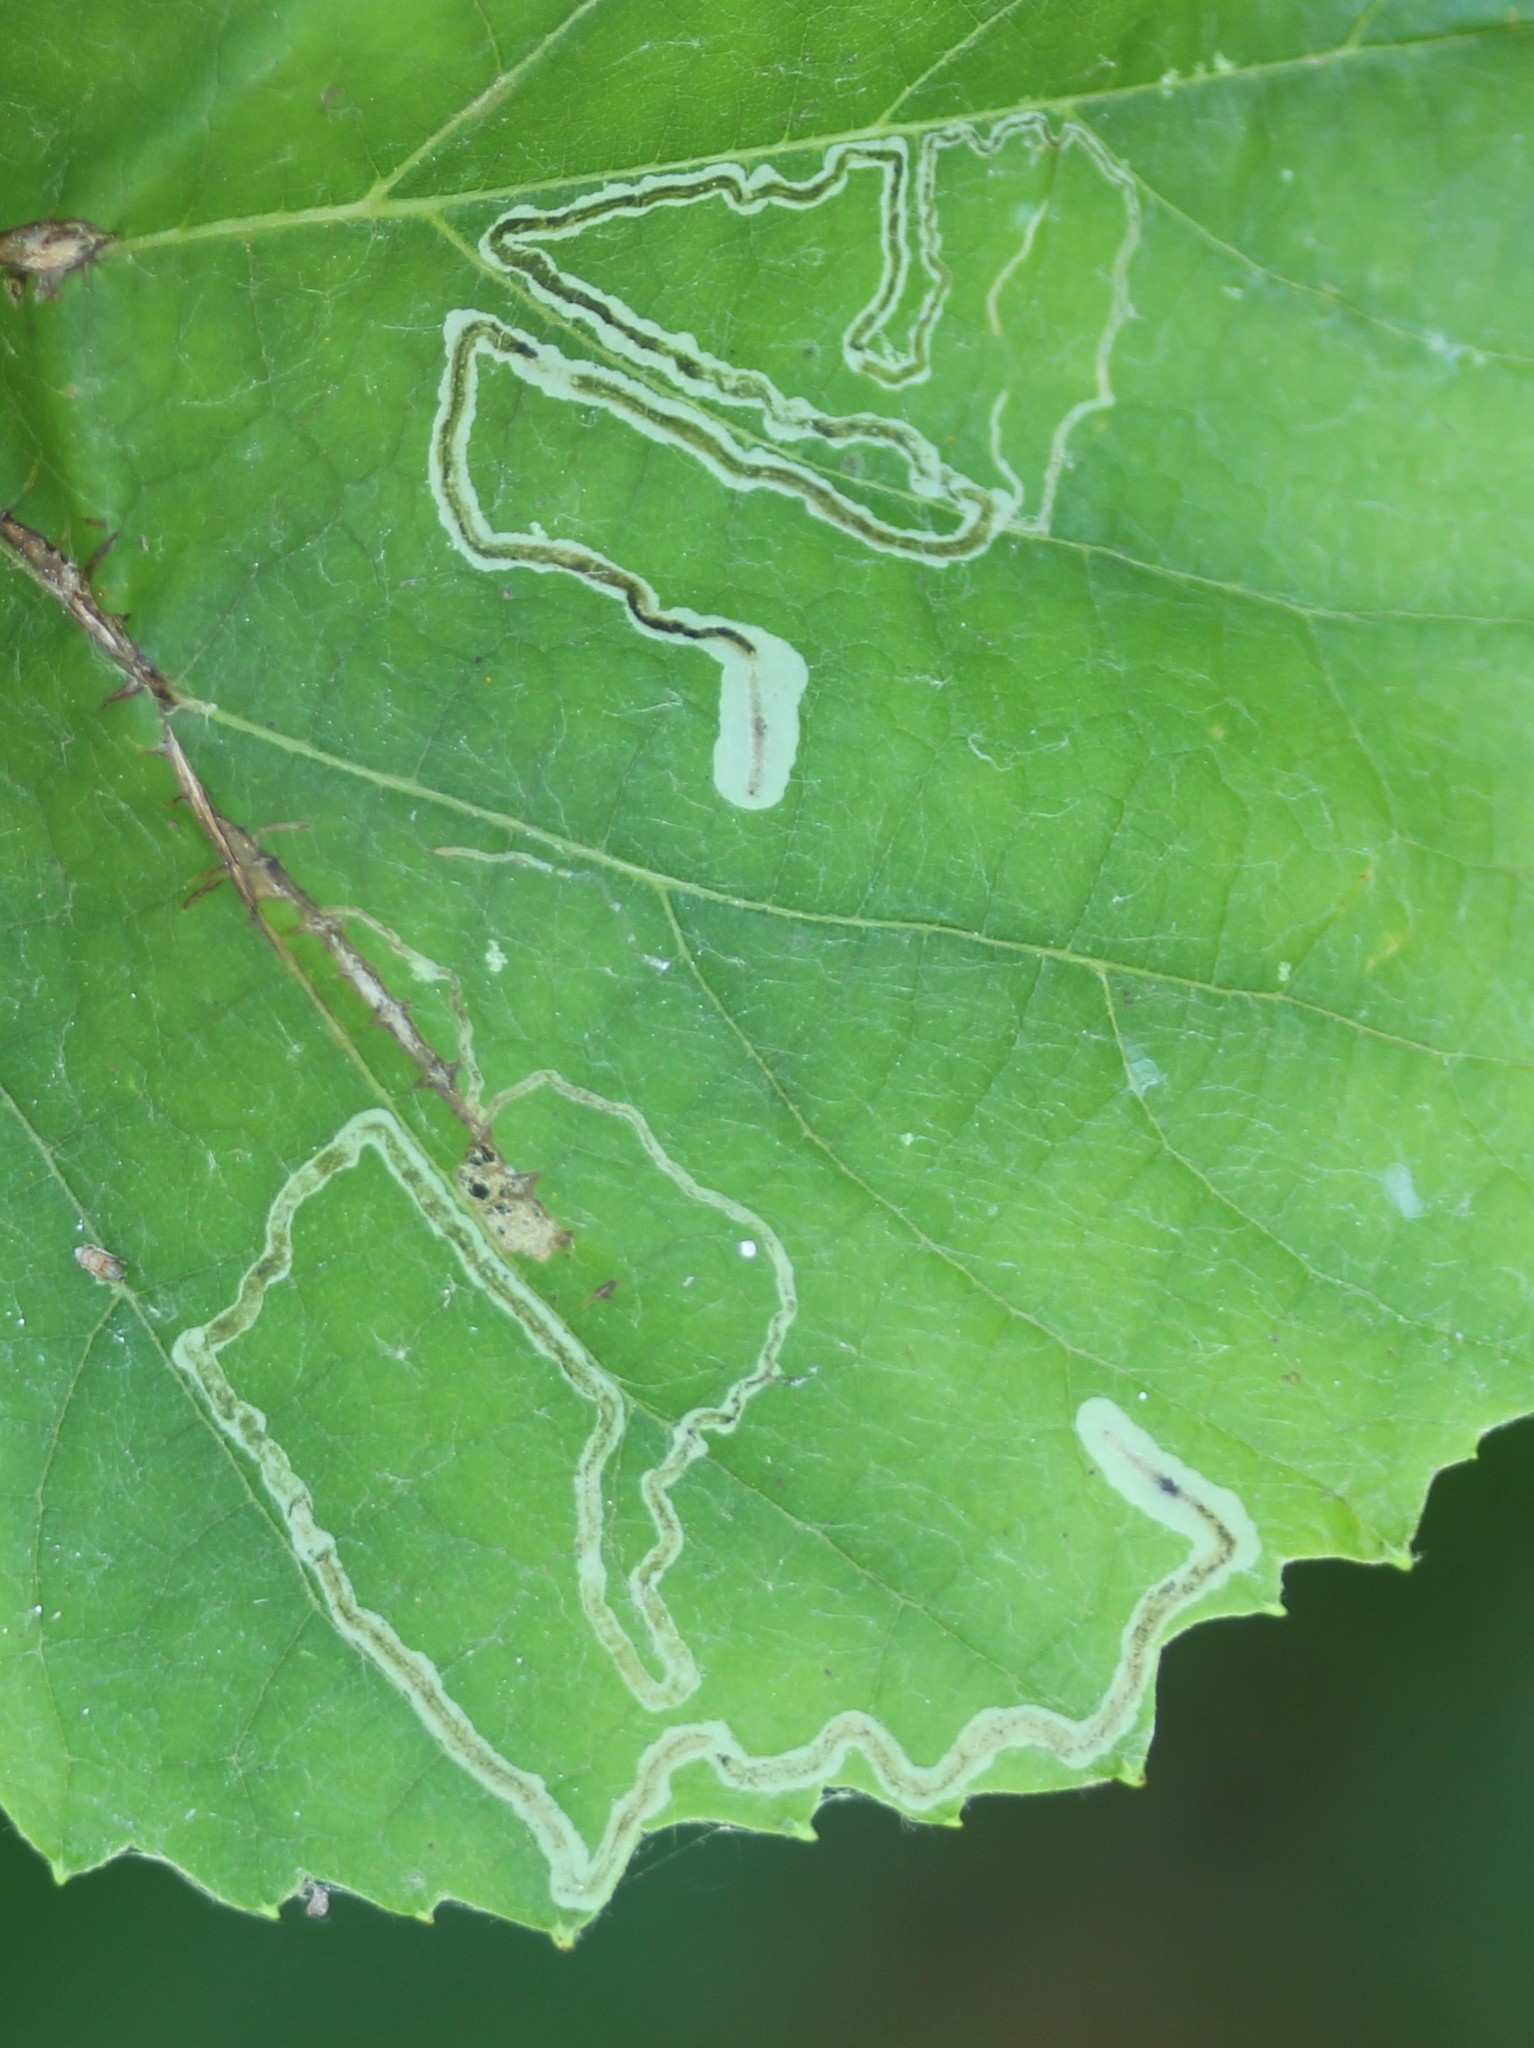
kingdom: Animalia
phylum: Arthropoda
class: Insecta
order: Lepidoptera
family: Gracillariidae
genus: Phyllocnistis
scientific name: Phyllocnistis vitifoliella
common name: Grape leaf-miner moth
